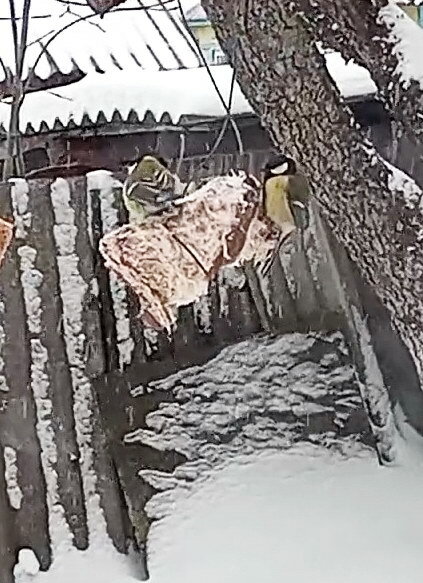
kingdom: Animalia
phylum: Chordata
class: Aves
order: Passeriformes
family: Paridae
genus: Parus
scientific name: Parus major
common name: Great tit
